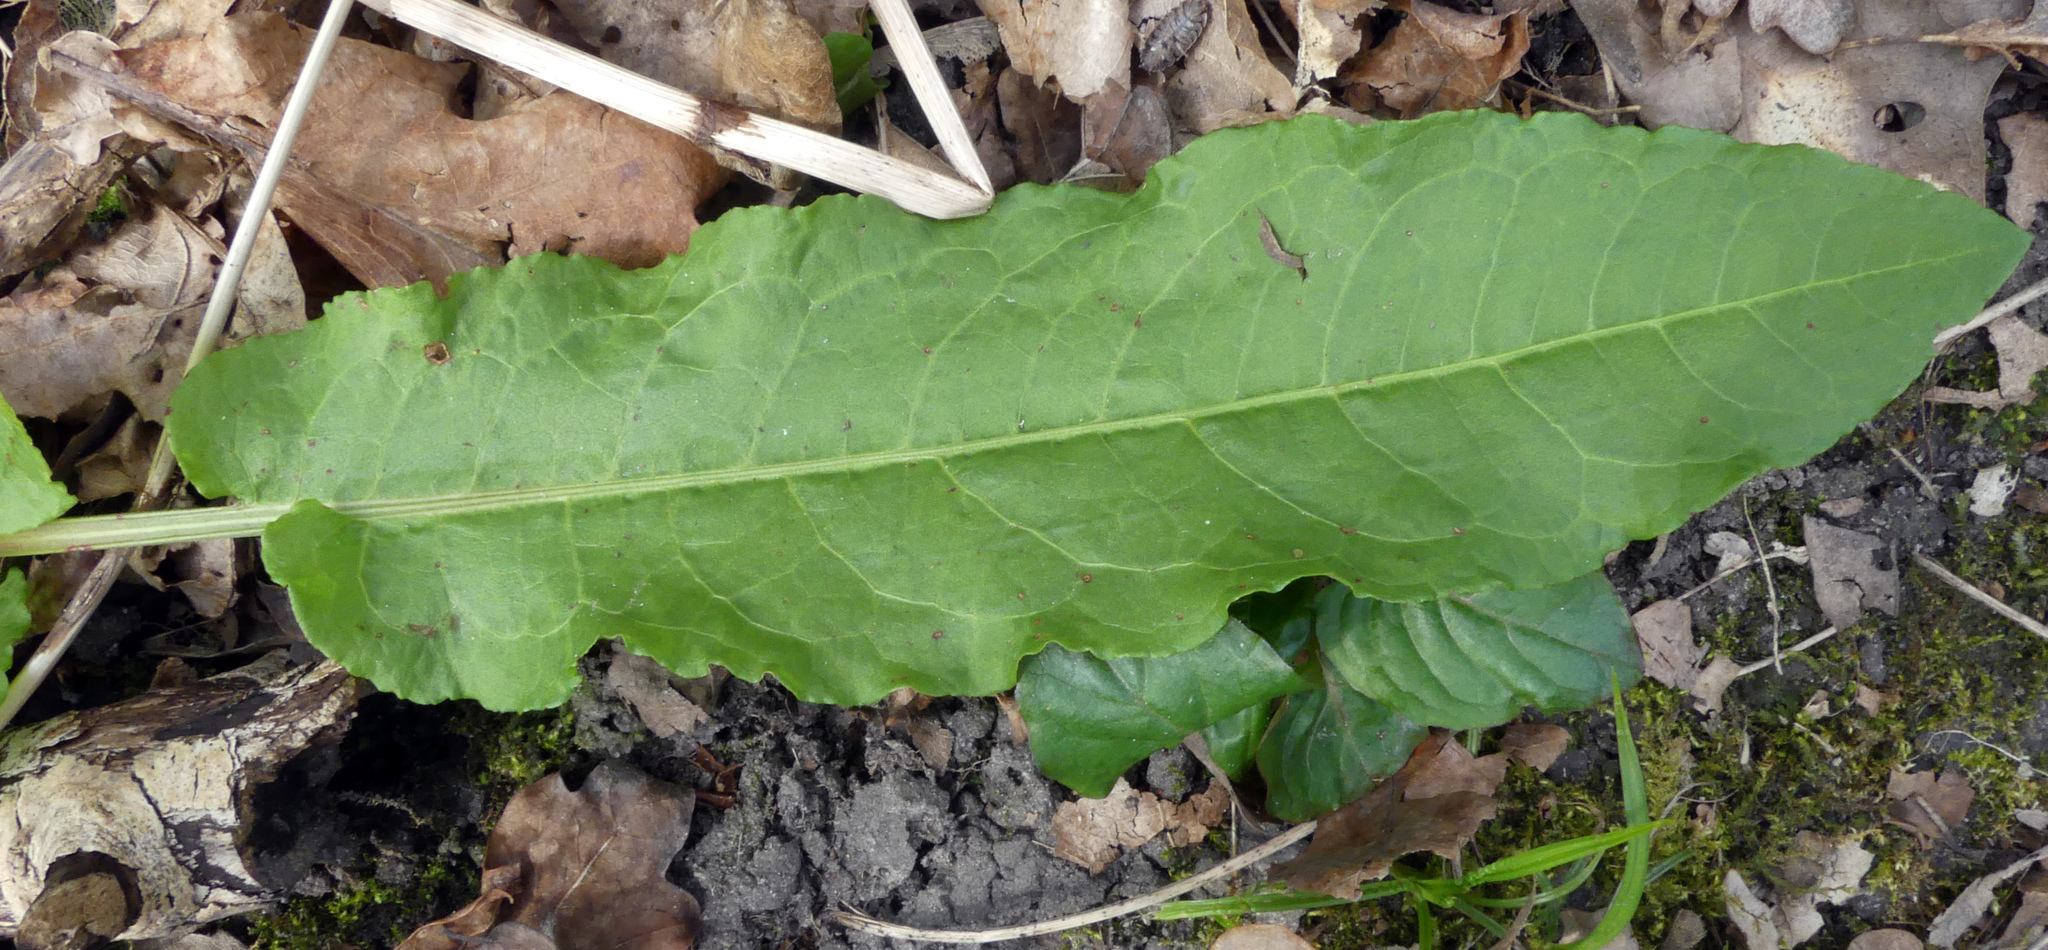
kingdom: Plantae
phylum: Tracheophyta
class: Magnoliopsida
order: Caryophyllales
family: Polygonaceae
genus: Rumex
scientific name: Rumex obtusifolius
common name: Bitter dock
